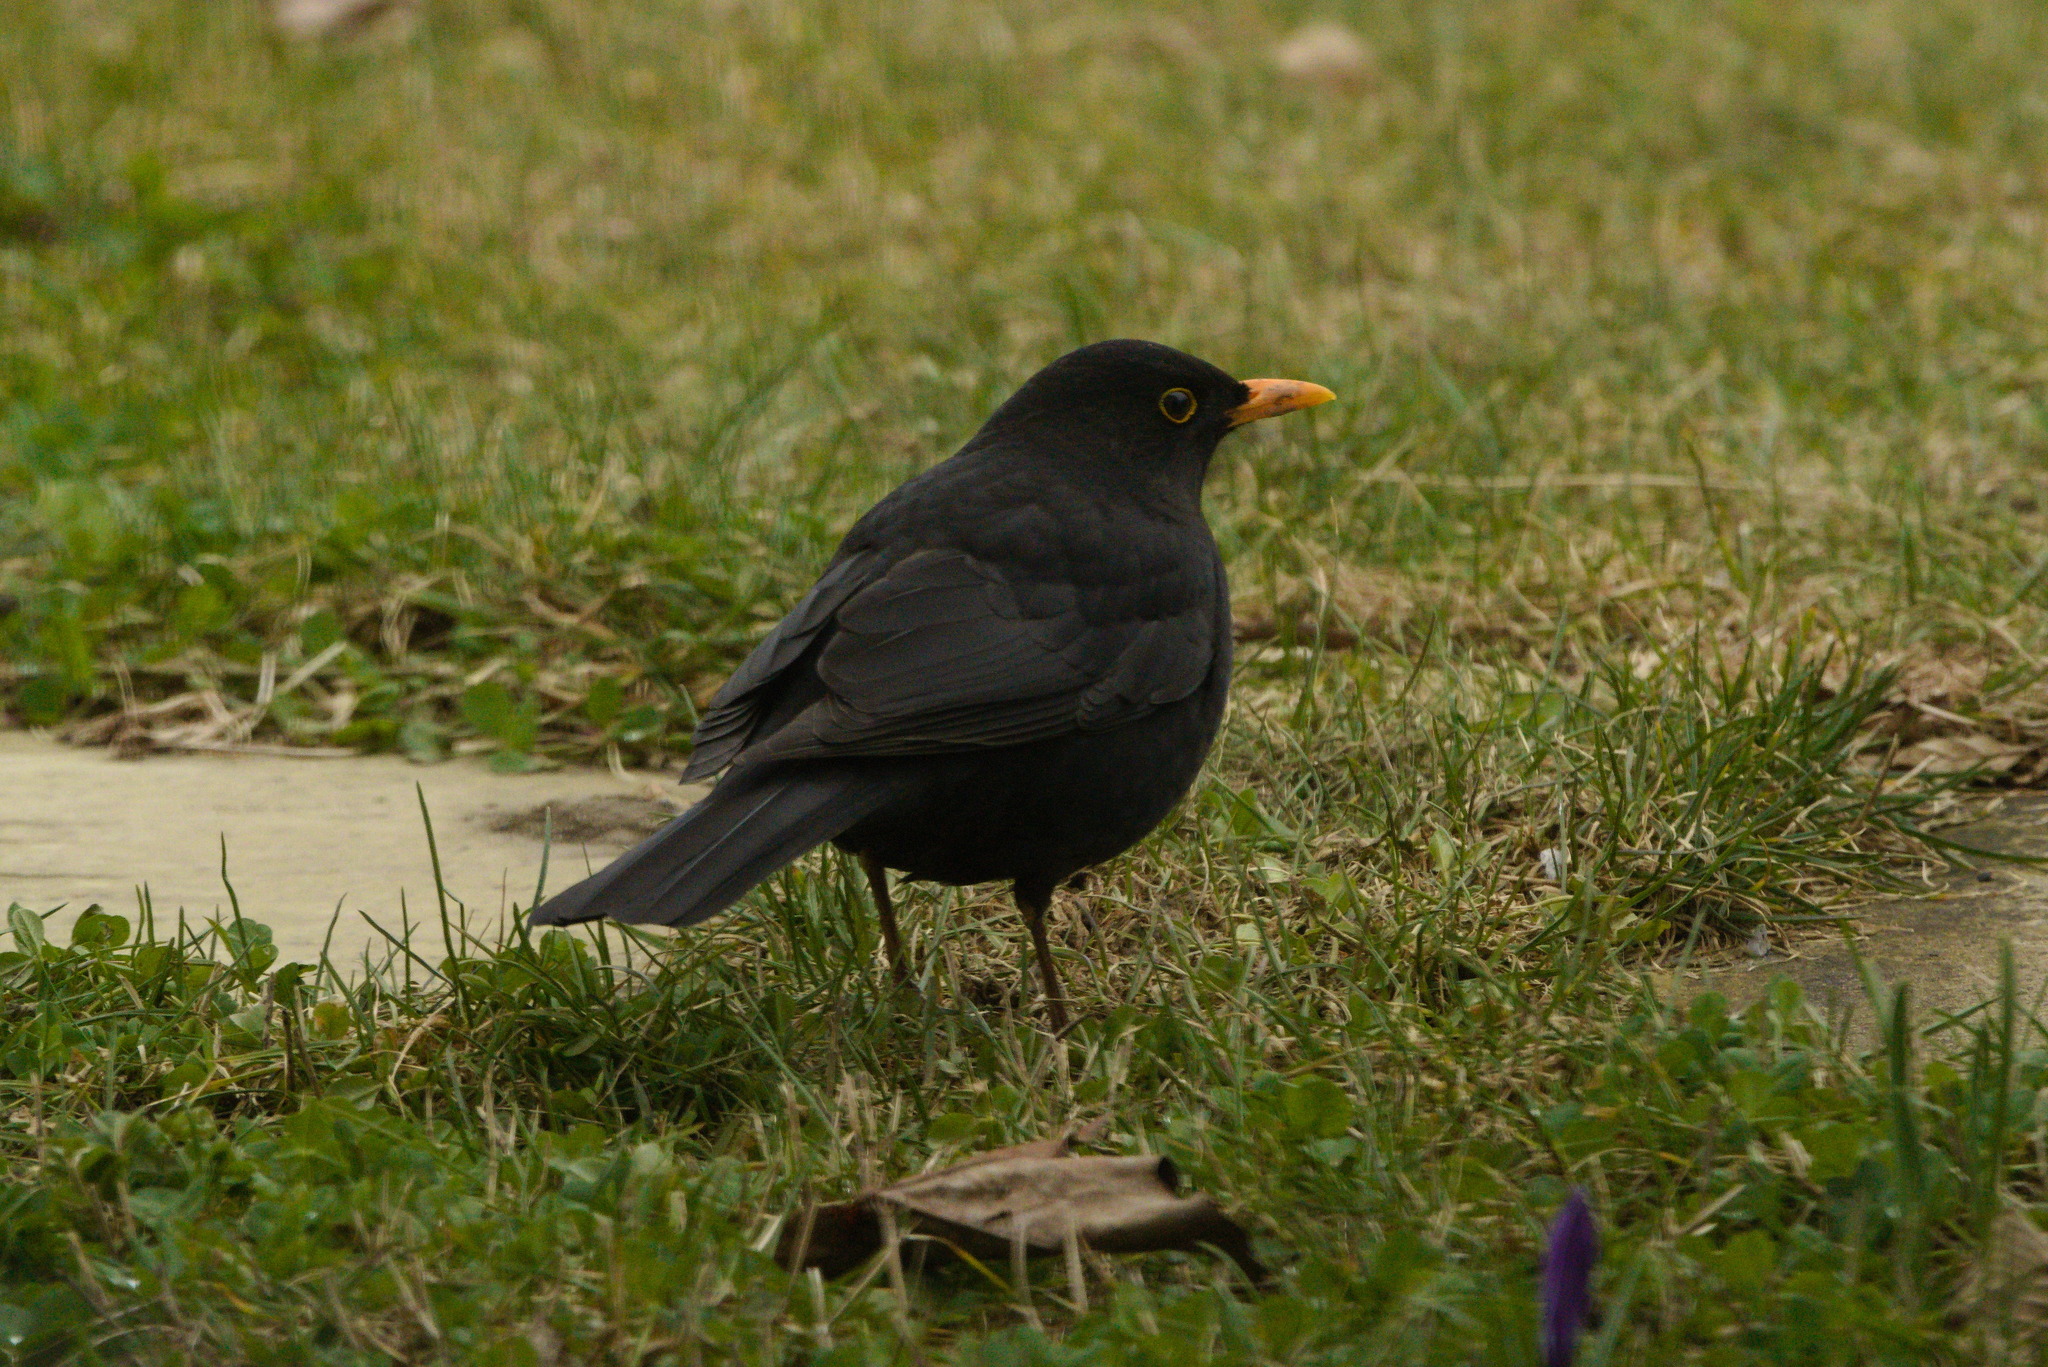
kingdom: Animalia
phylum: Chordata
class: Aves
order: Passeriformes
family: Turdidae
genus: Turdus
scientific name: Turdus merula
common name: Common blackbird
